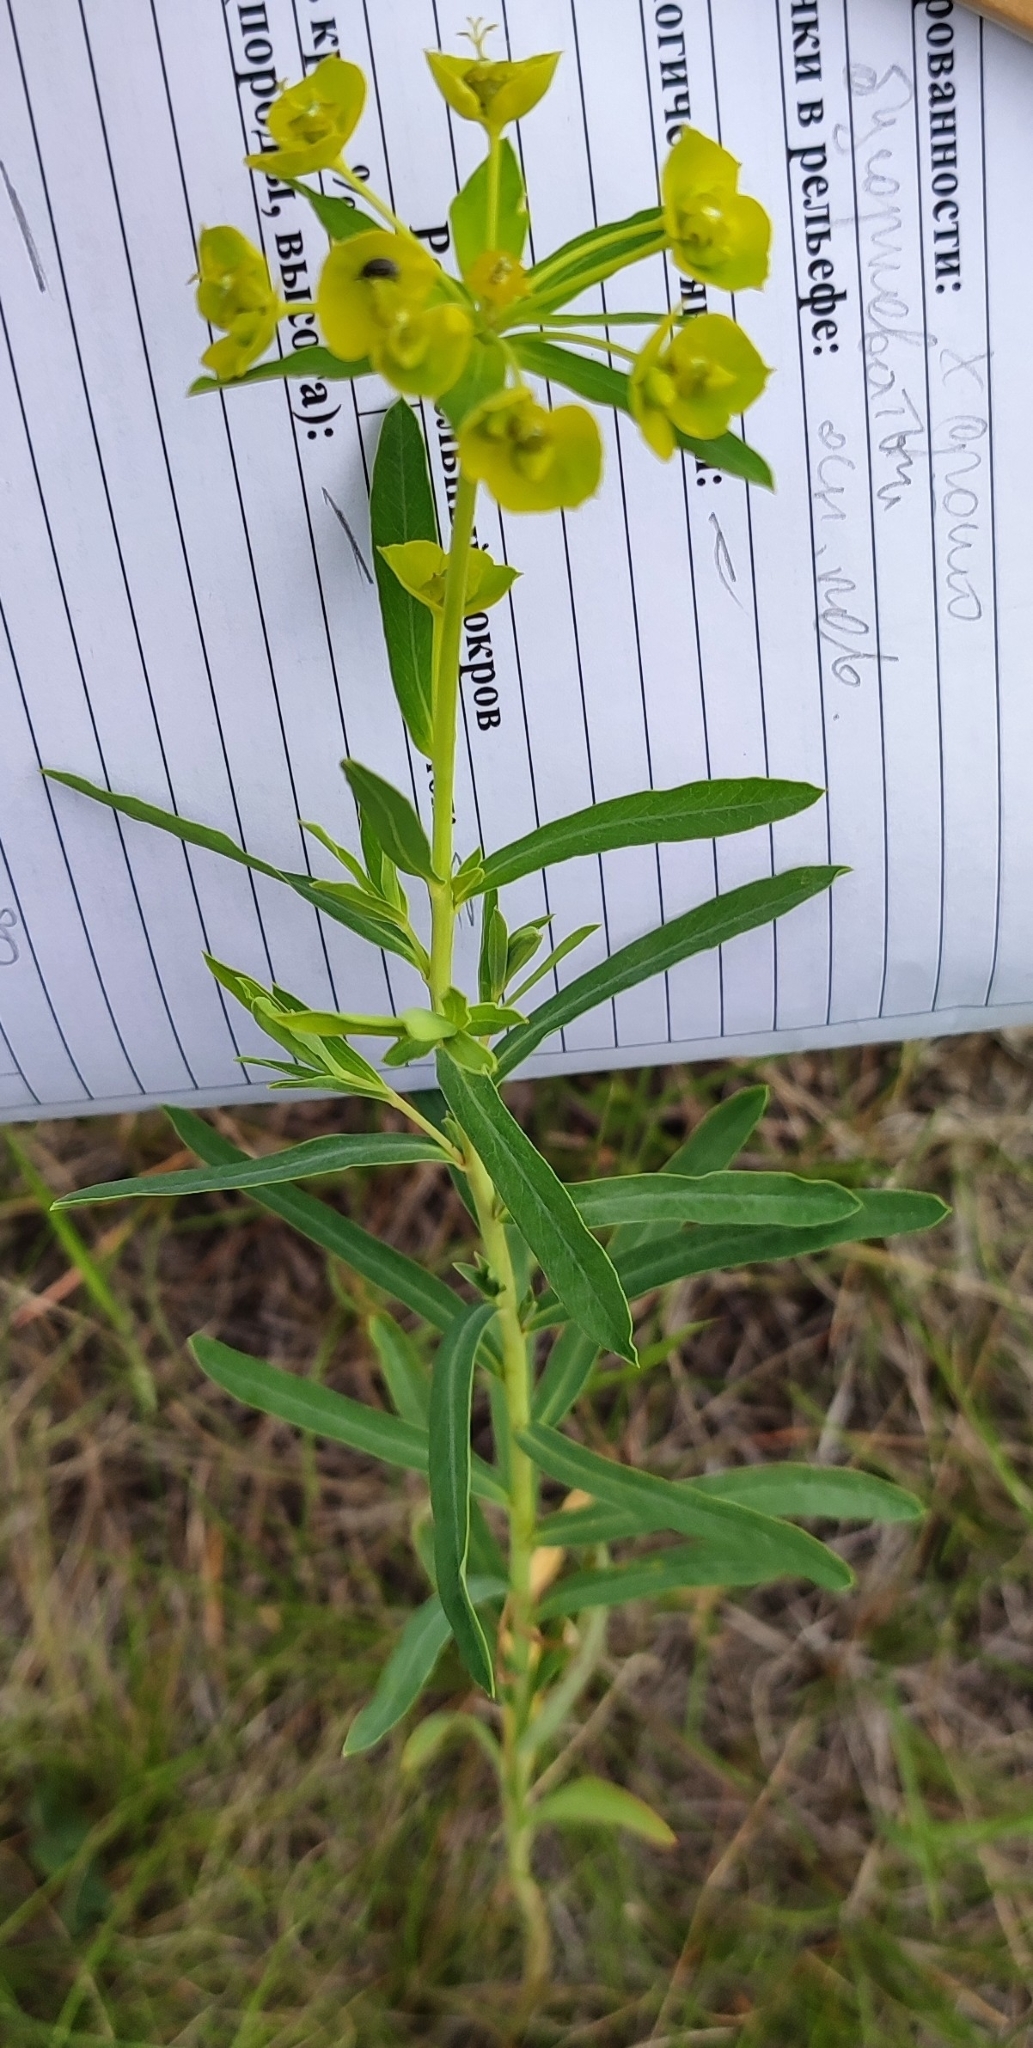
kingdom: Plantae
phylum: Tracheophyta
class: Magnoliopsida
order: Malpighiales
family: Euphorbiaceae
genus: Euphorbia
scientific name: Euphorbia virgata
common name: Leafy spurge
